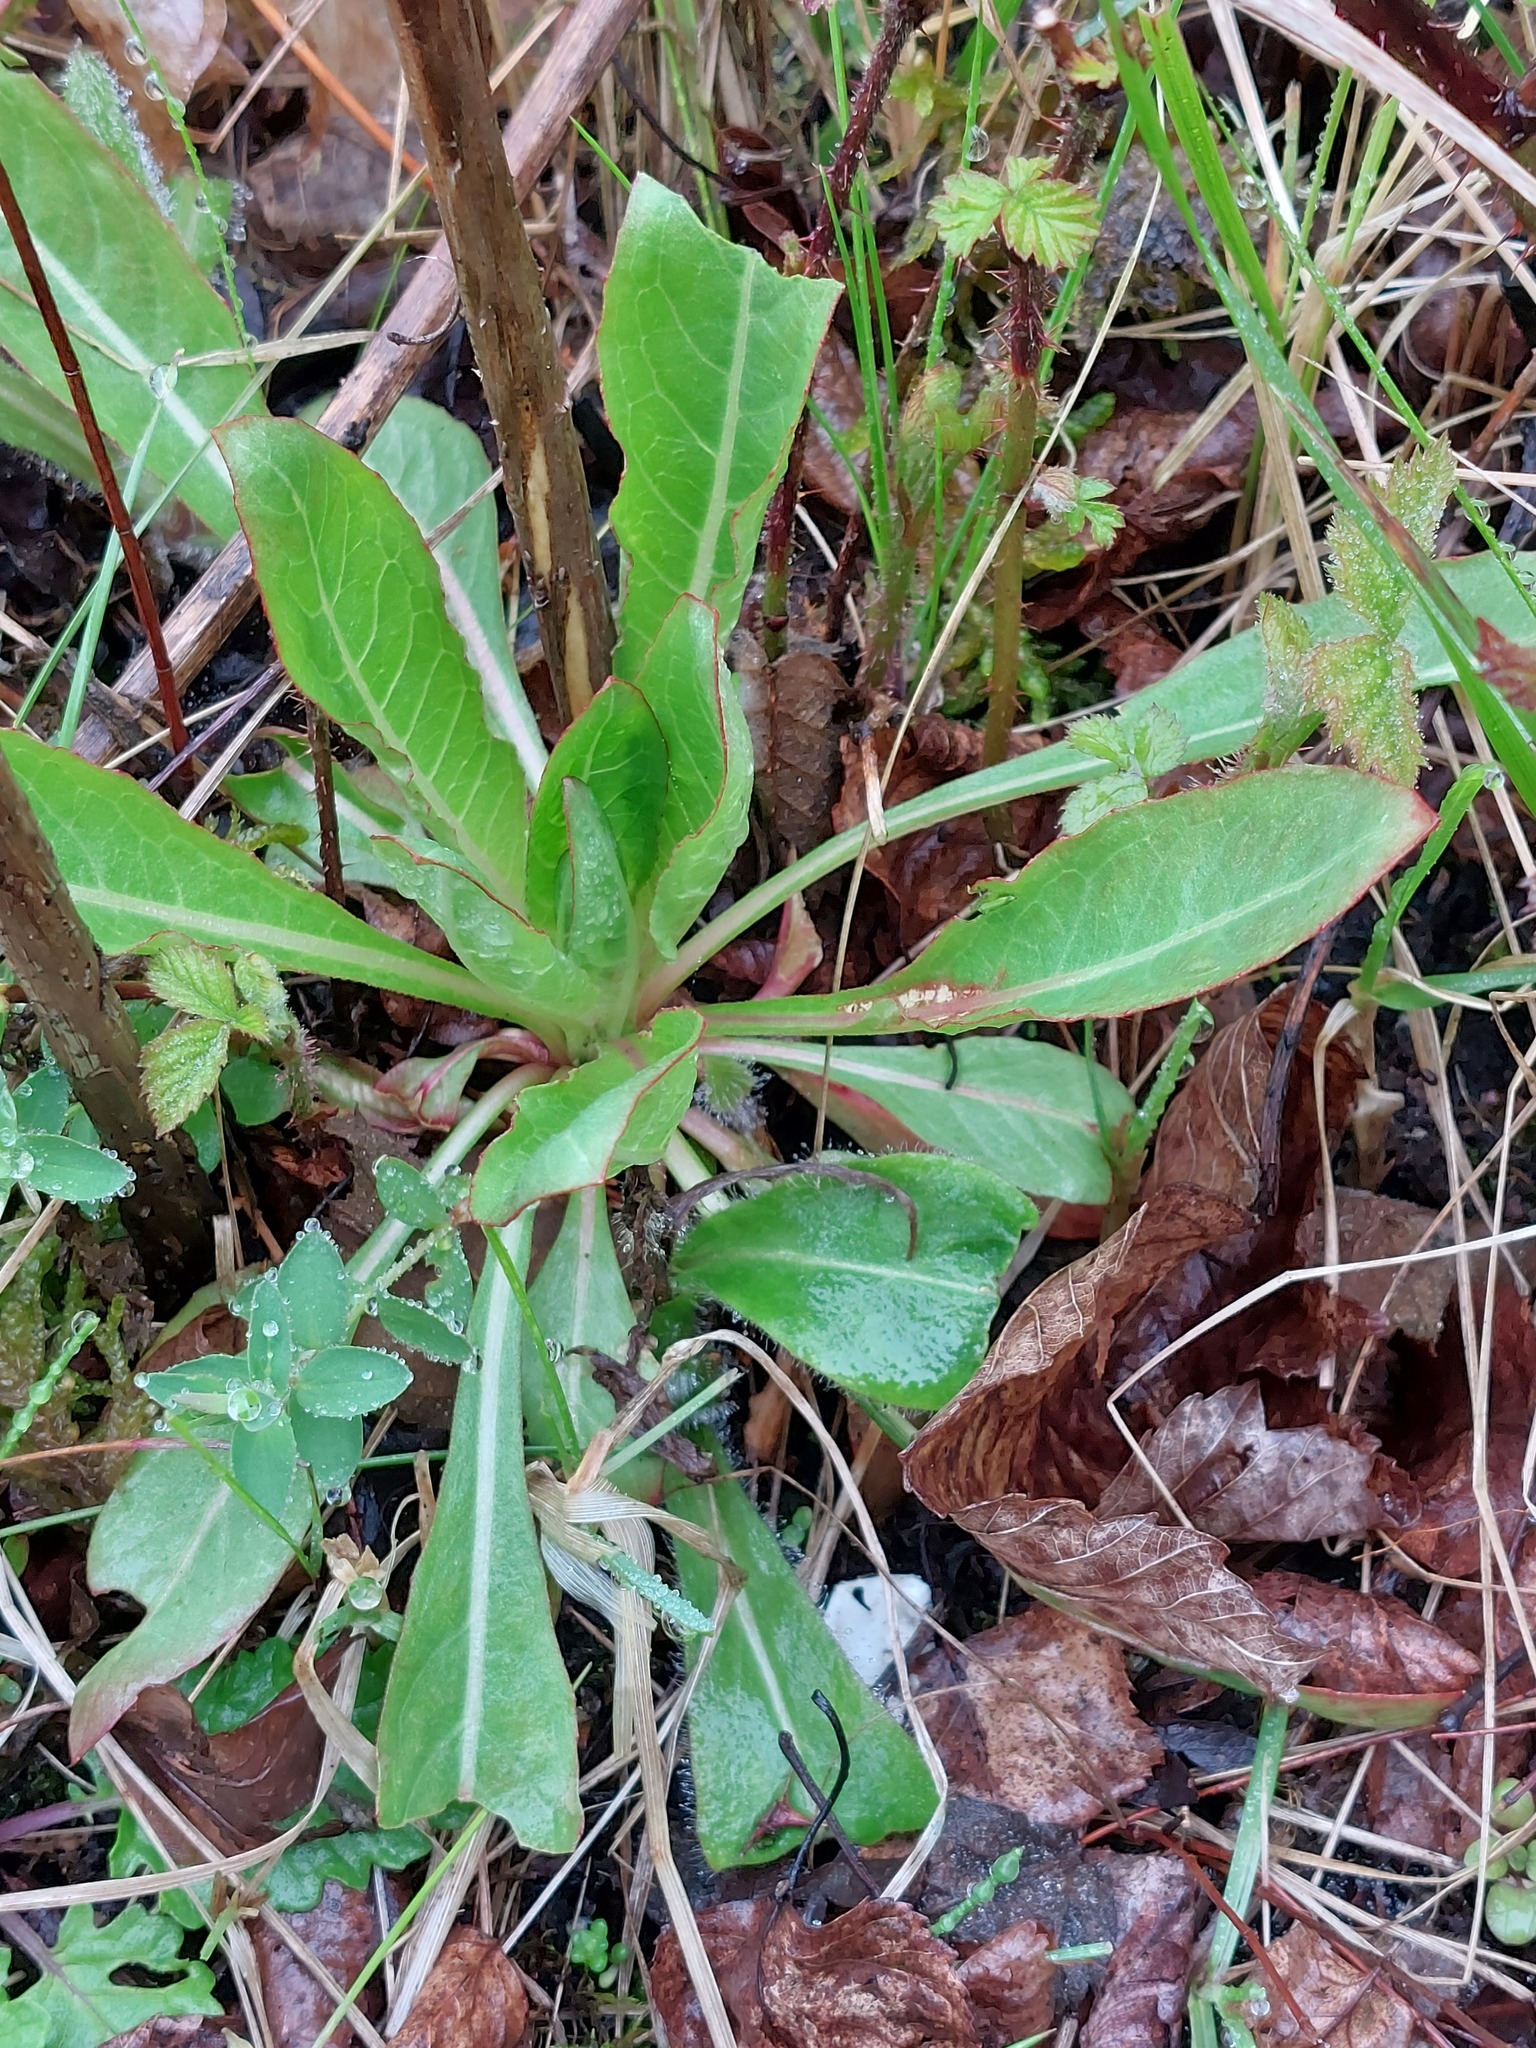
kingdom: Plantae
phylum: Tracheophyta
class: Magnoliopsida
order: Myrtales
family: Onagraceae
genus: Oenothera
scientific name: Oenothera biennis
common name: Common evening-primrose
